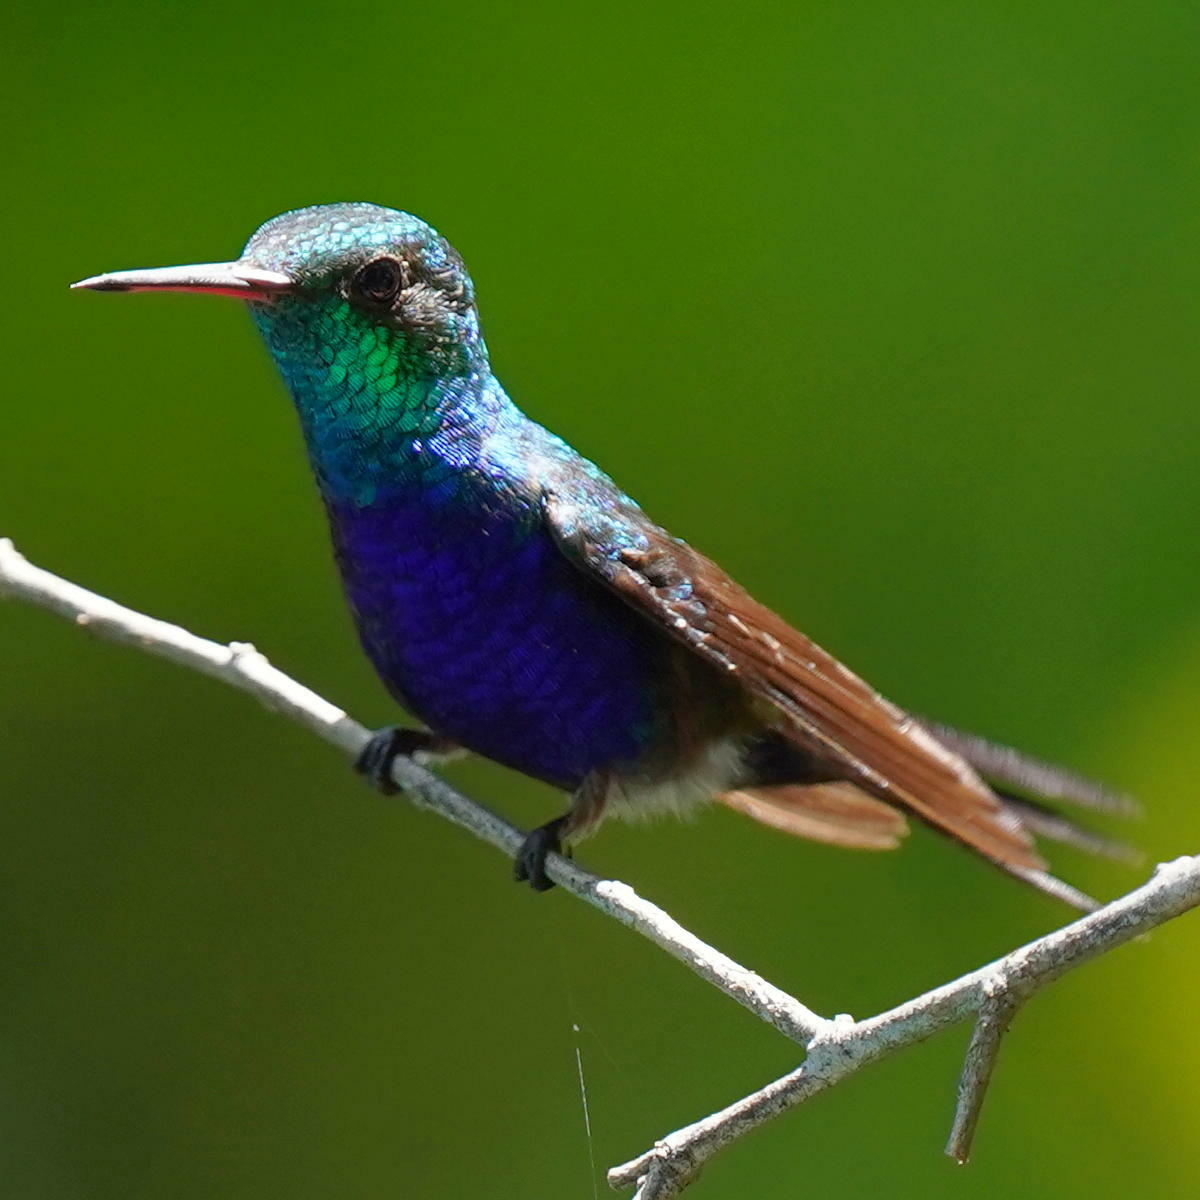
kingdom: Animalia
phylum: Chordata
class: Aves
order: Apodiformes
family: Trochilidae
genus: Chlorestes
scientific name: Chlorestes julie
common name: Violet-bellied hummingbird
